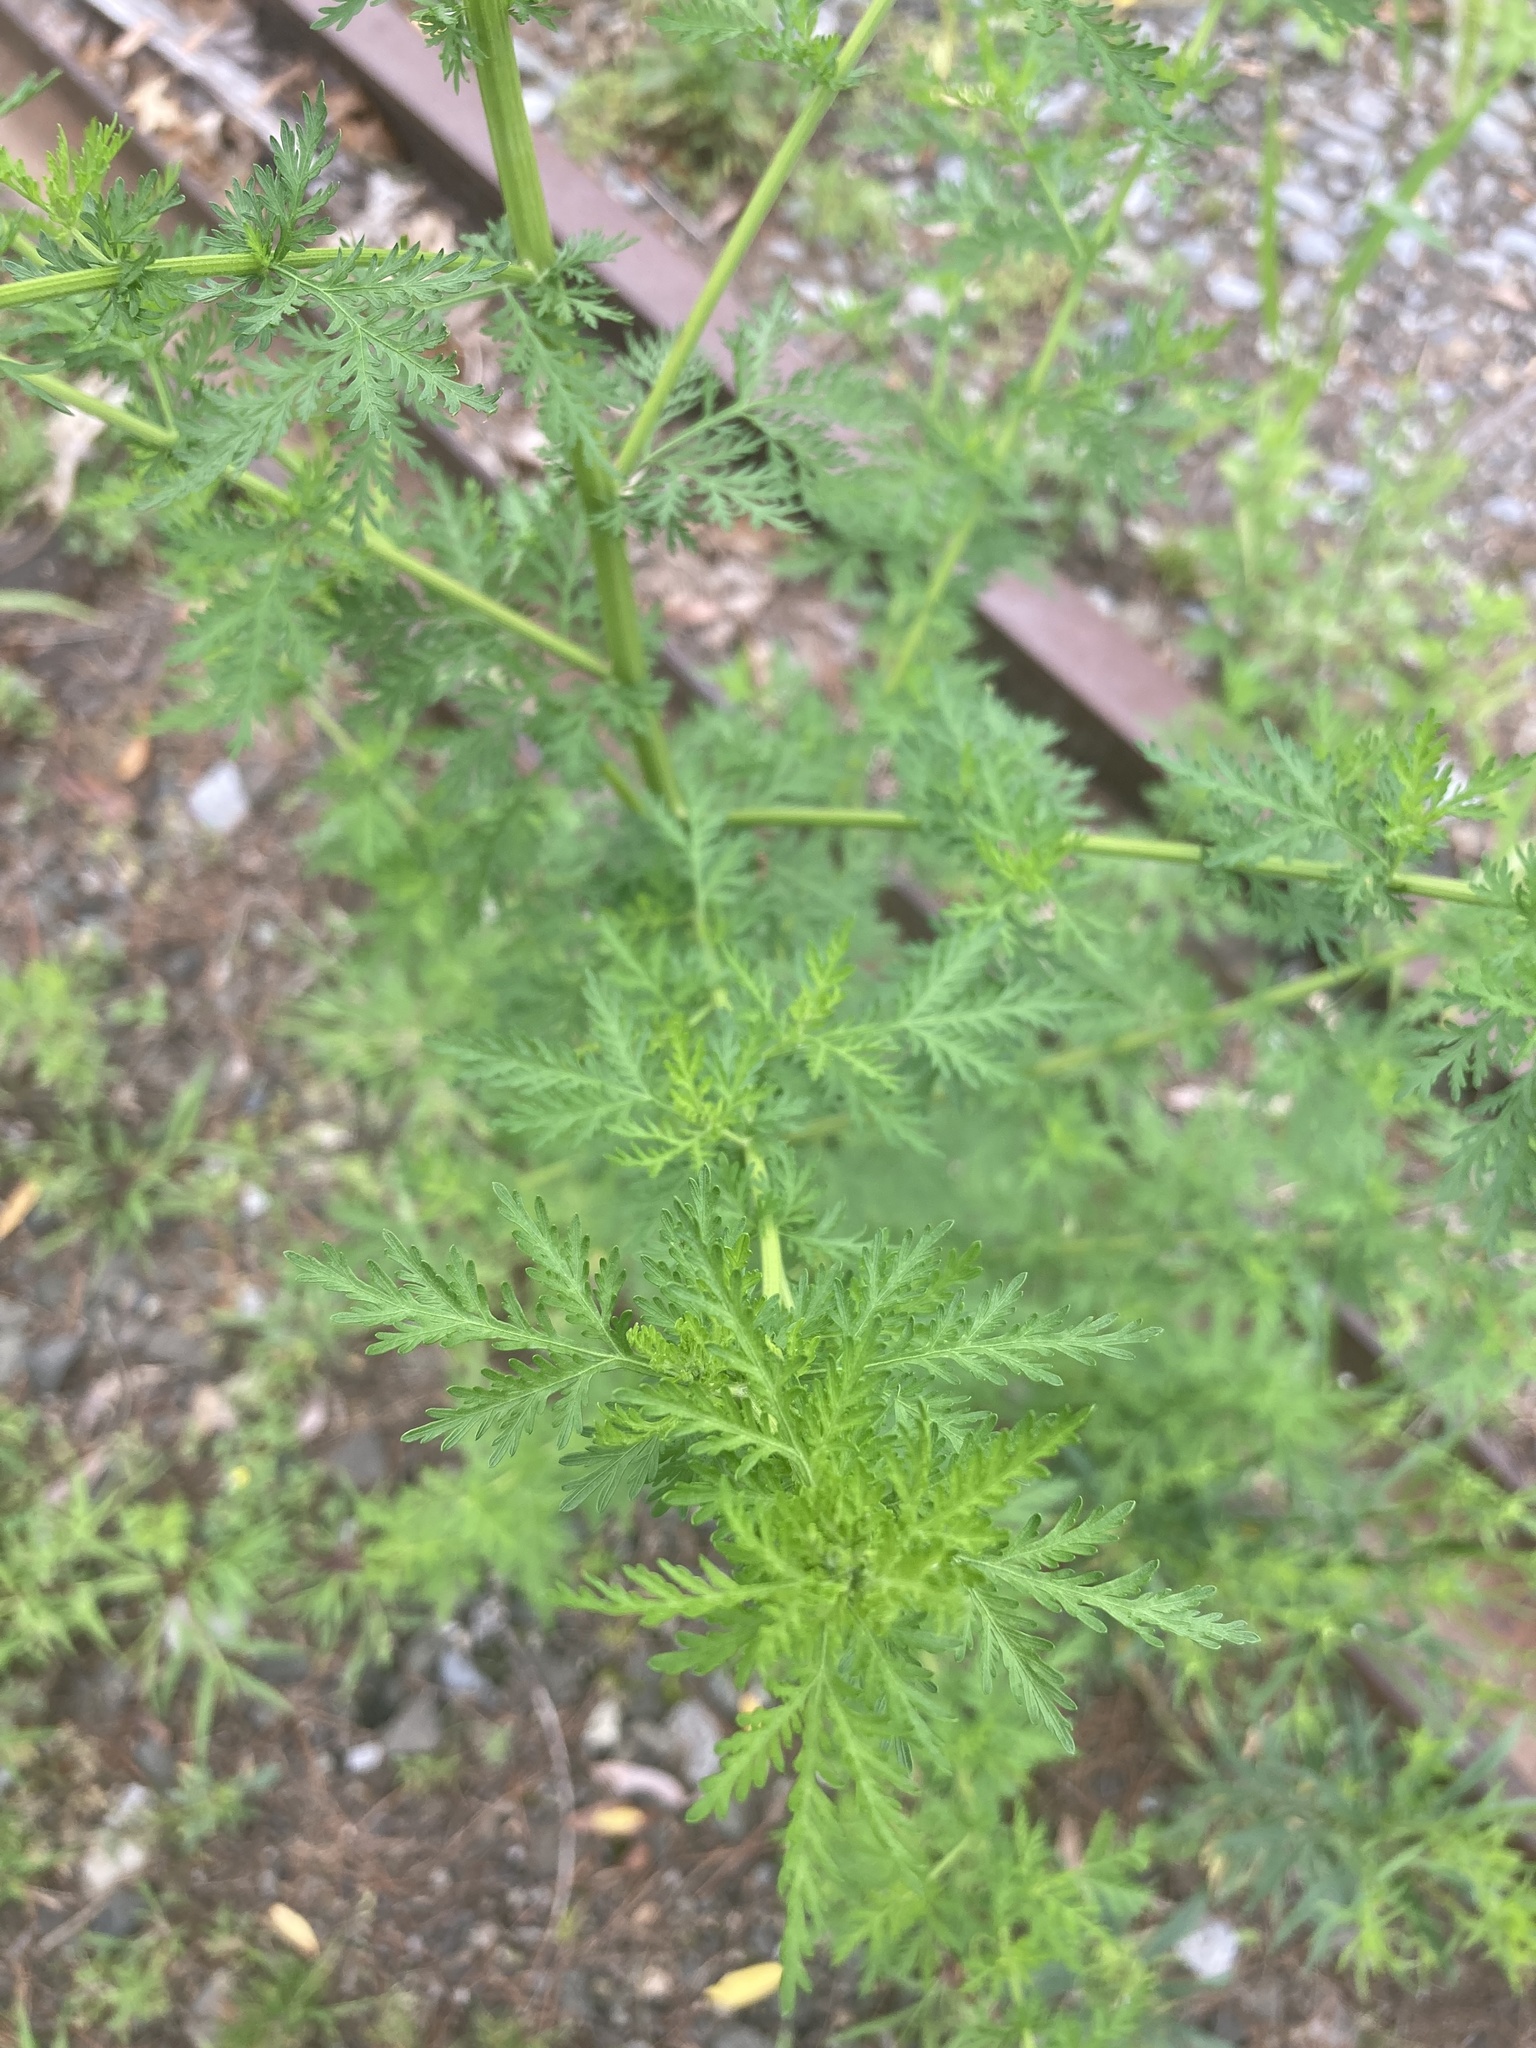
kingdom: Plantae
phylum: Tracheophyta
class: Magnoliopsida
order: Asterales
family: Asteraceae
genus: Artemisia
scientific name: Artemisia annua
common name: Sweet sagewort
